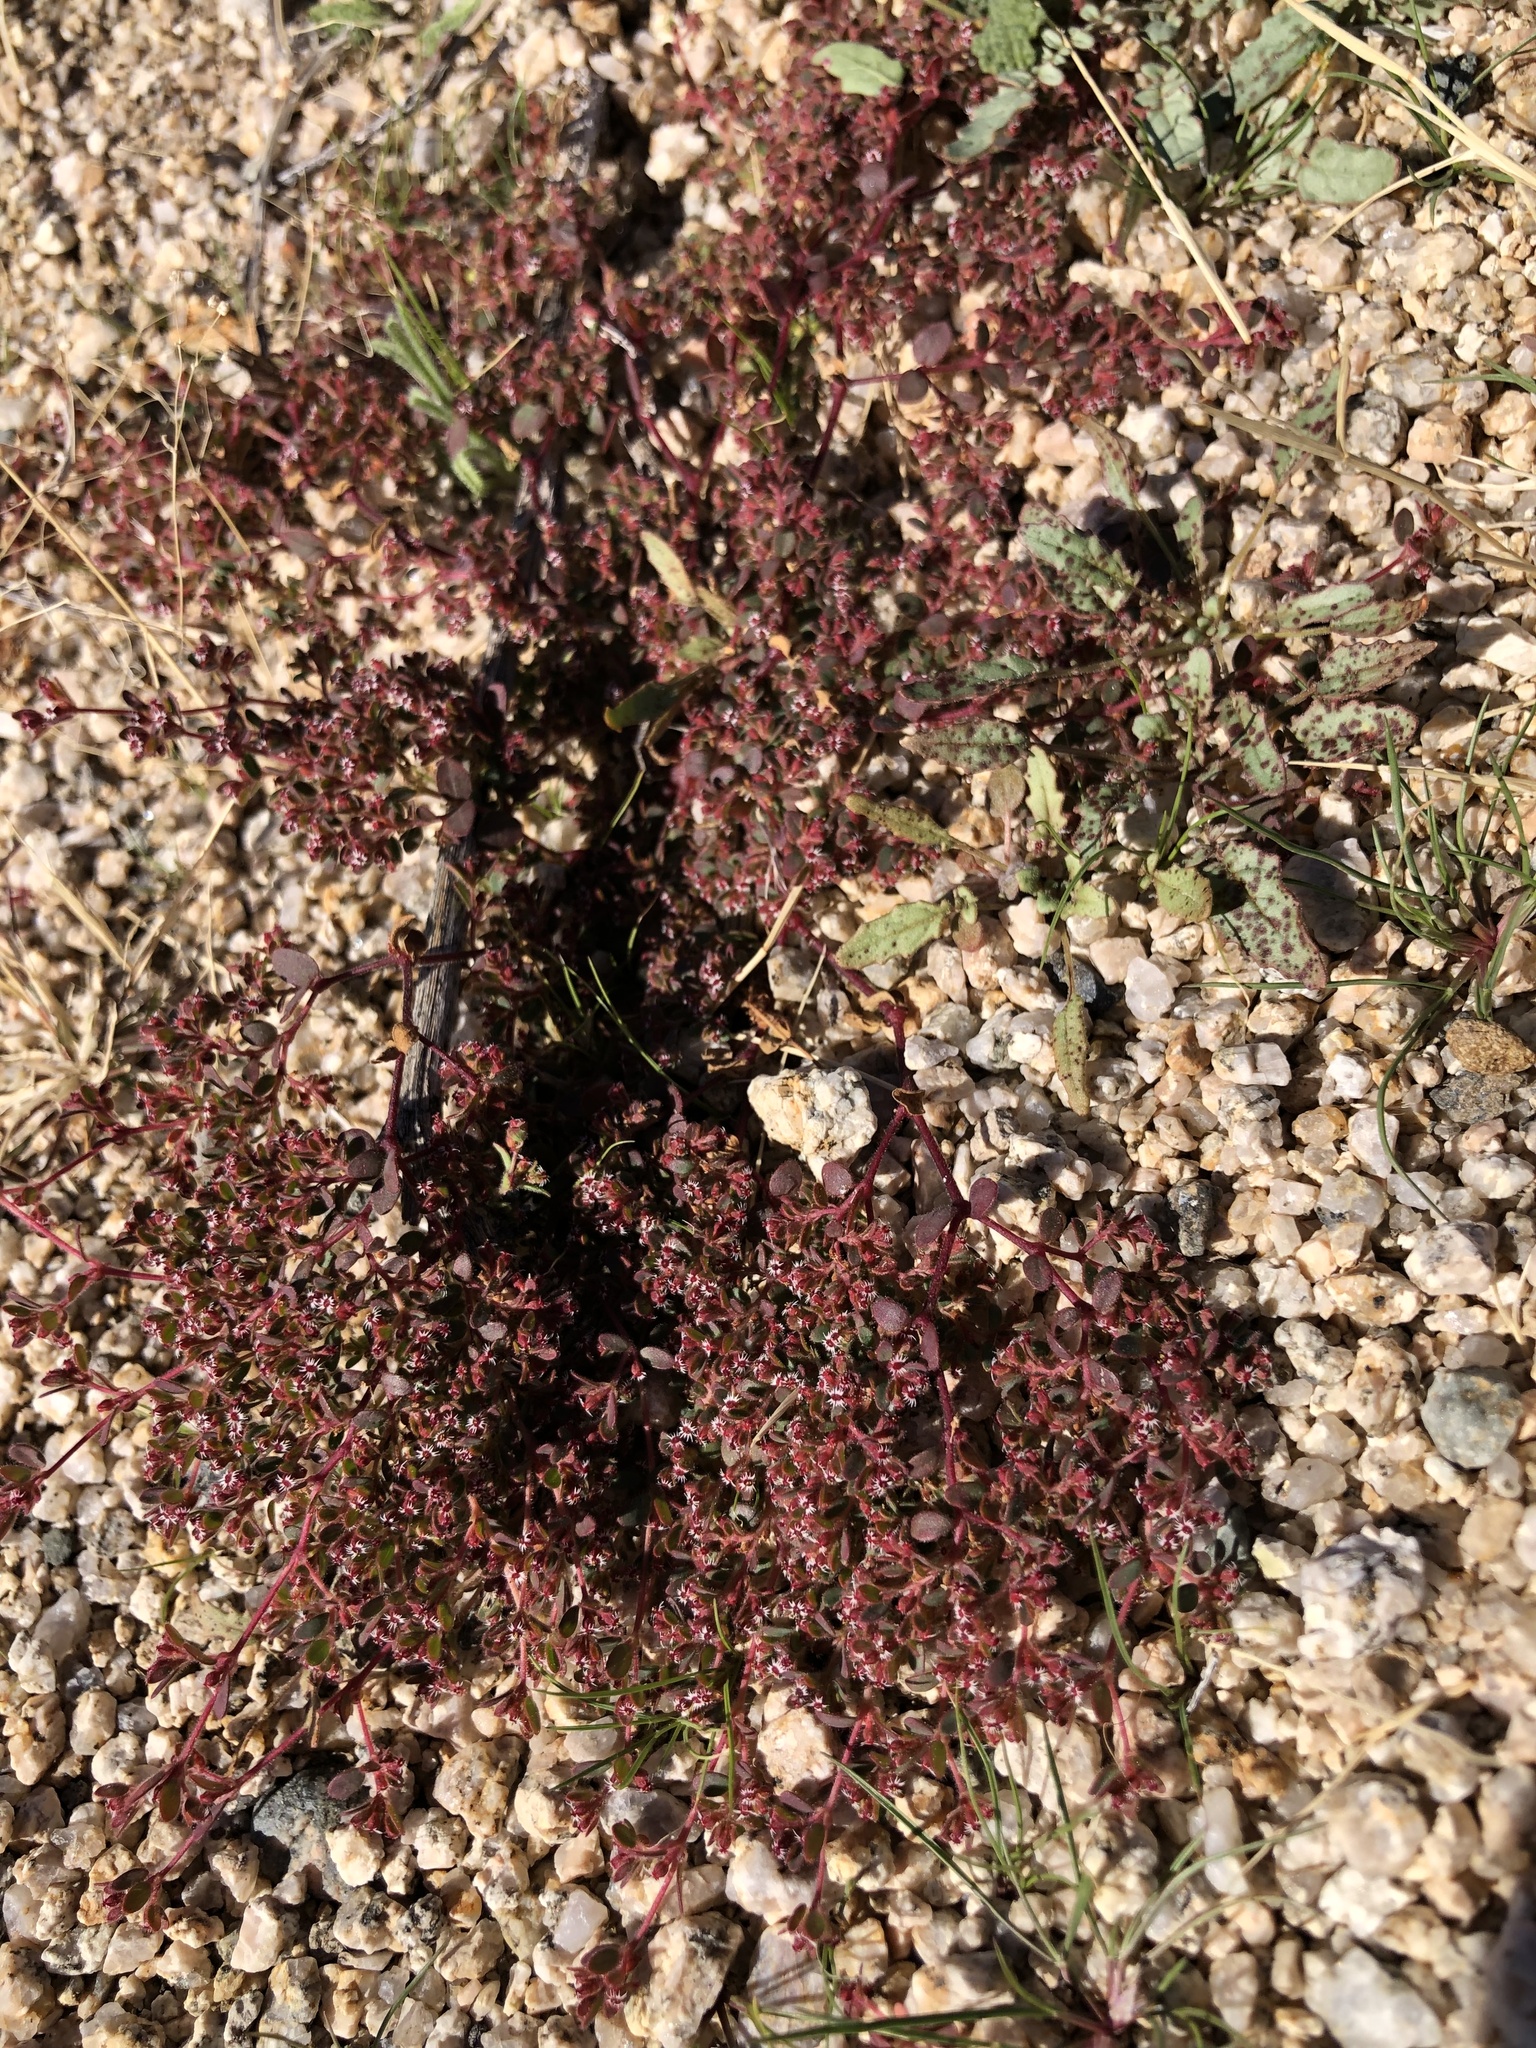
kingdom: Plantae
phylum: Tracheophyta
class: Magnoliopsida
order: Malpighiales
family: Euphorbiaceae
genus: Euphorbia
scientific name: Euphorbia setiloba
